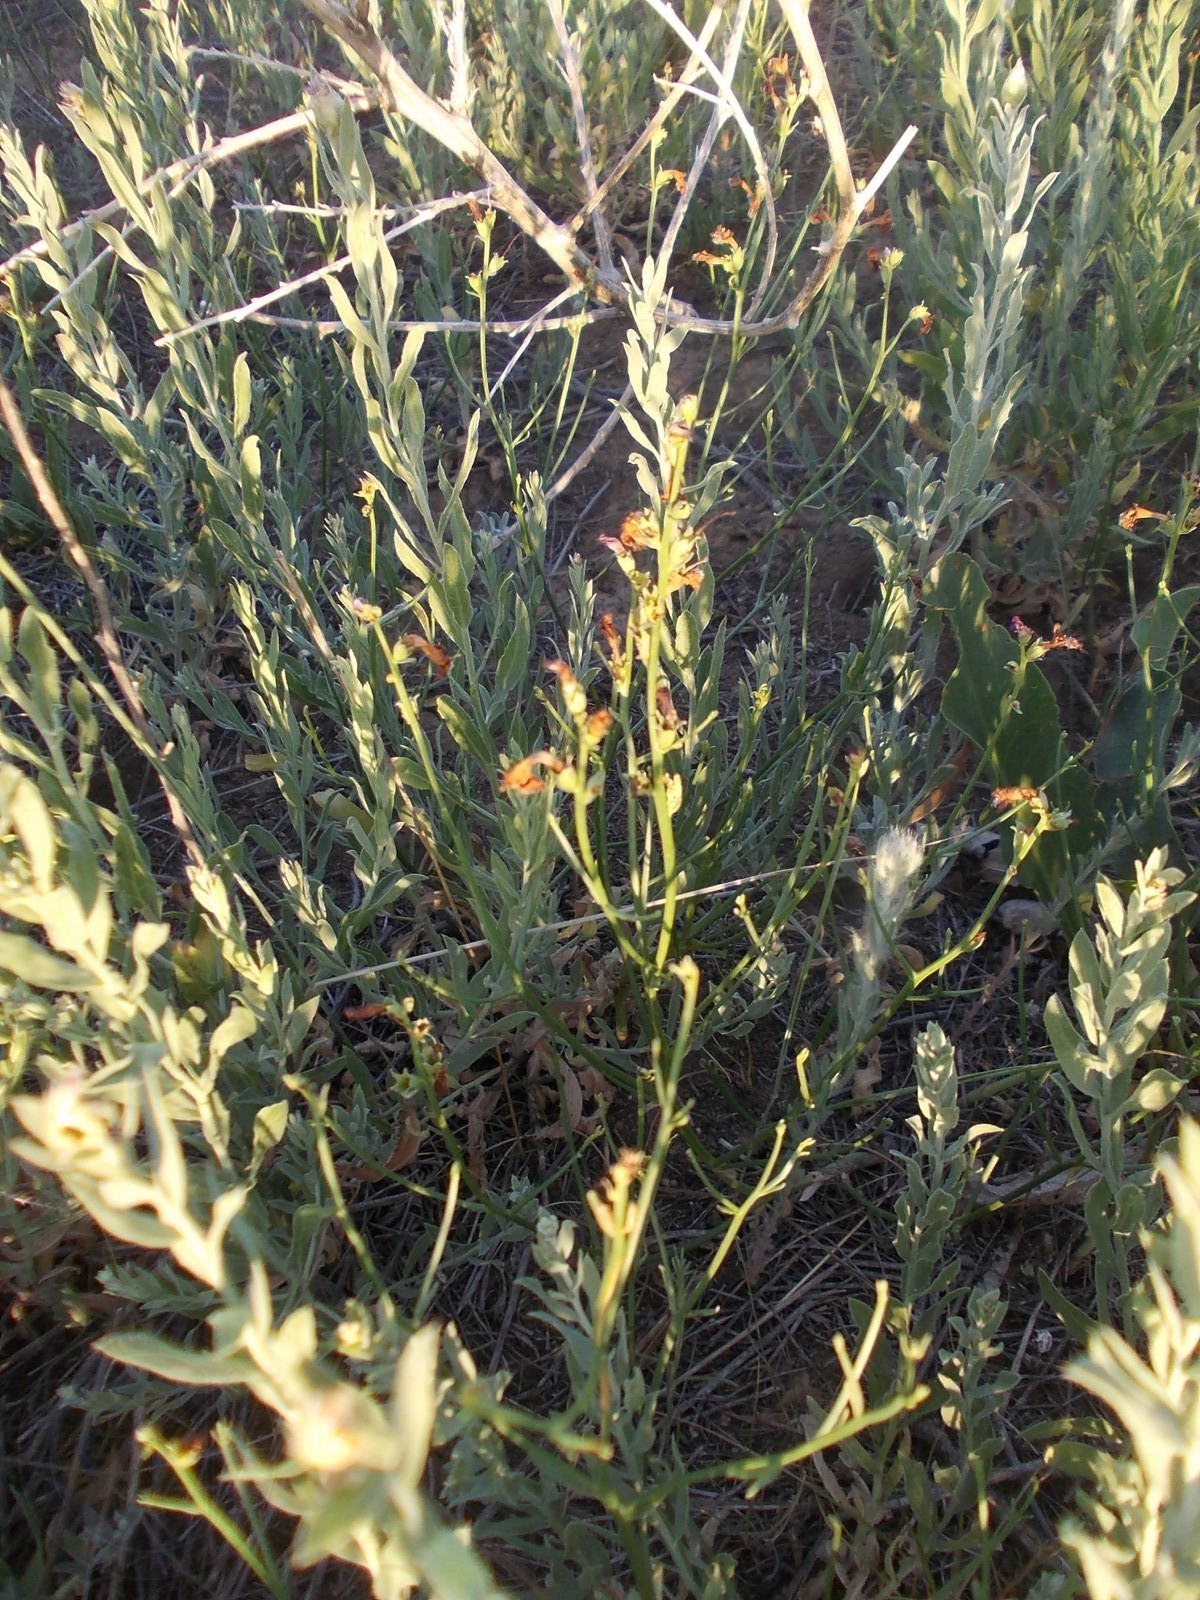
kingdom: Plantae
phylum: Tracheophyta
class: Magnoliopsida
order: Lamiales
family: Mazaceae
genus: Dodartia
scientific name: Dodartia orientalis
